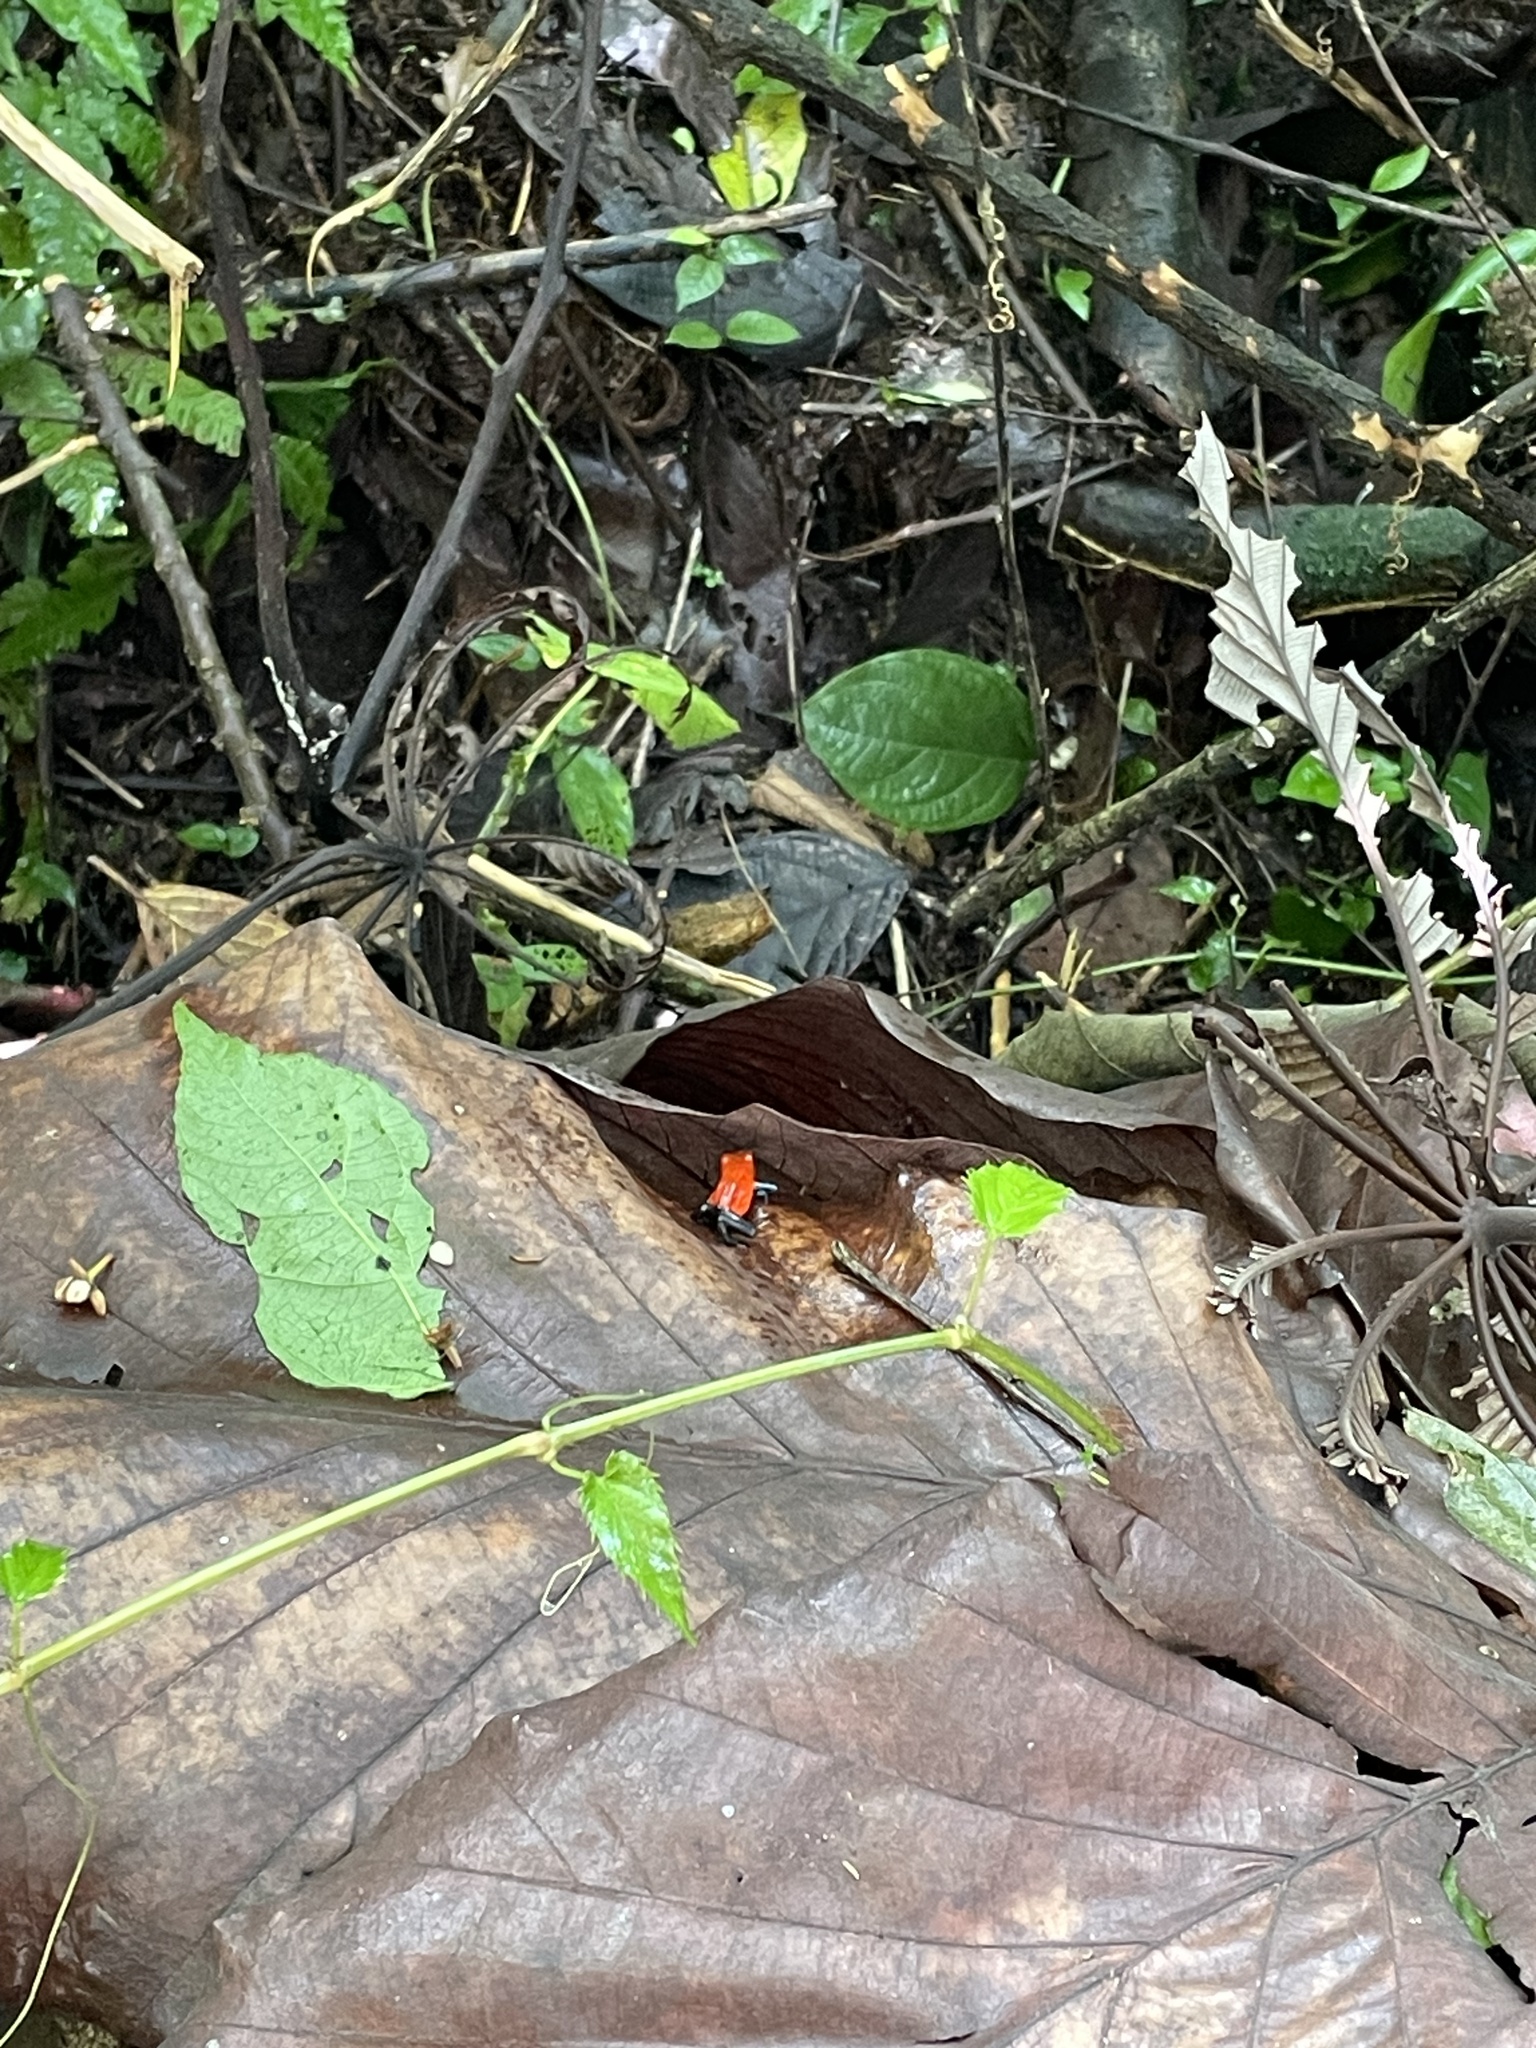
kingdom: Animalia
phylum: Chordata
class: Amphibia
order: Anura
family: Dendrobatidae
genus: Oophaga
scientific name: Oophaga pumilio
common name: Flaming poison frog
